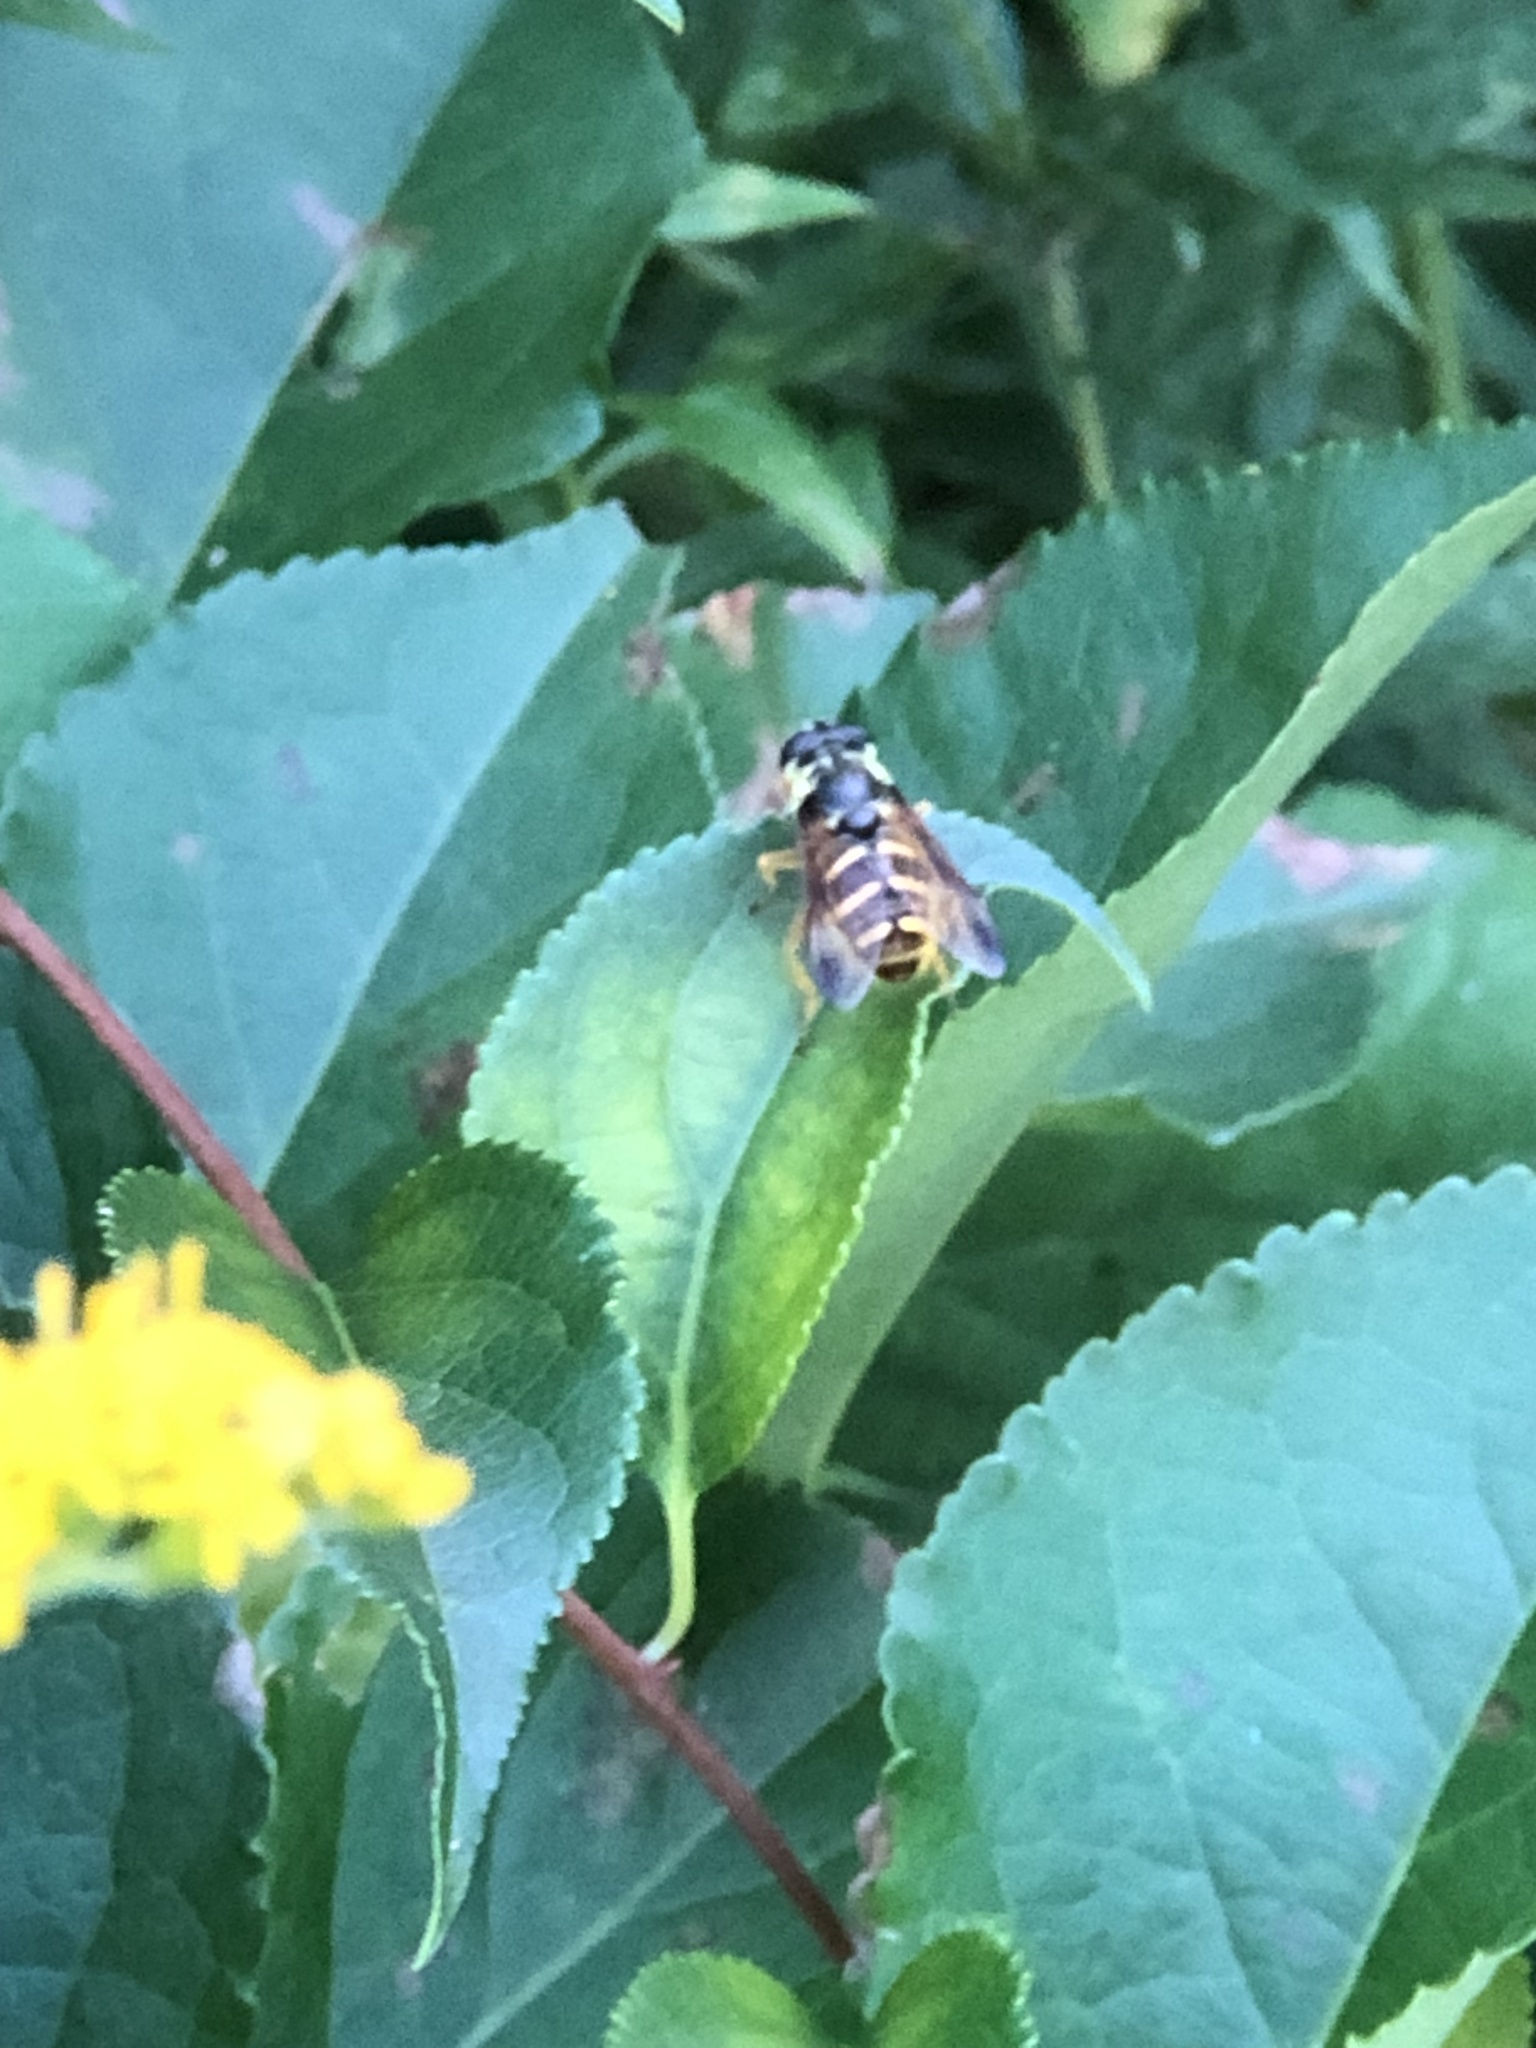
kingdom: Animalia
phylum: Arthropoda
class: Insecta
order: Diptera
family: Syrphidae
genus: Sericomyia
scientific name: Sericomyia chrysotoxoides
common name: Oblique-banded pond fly
